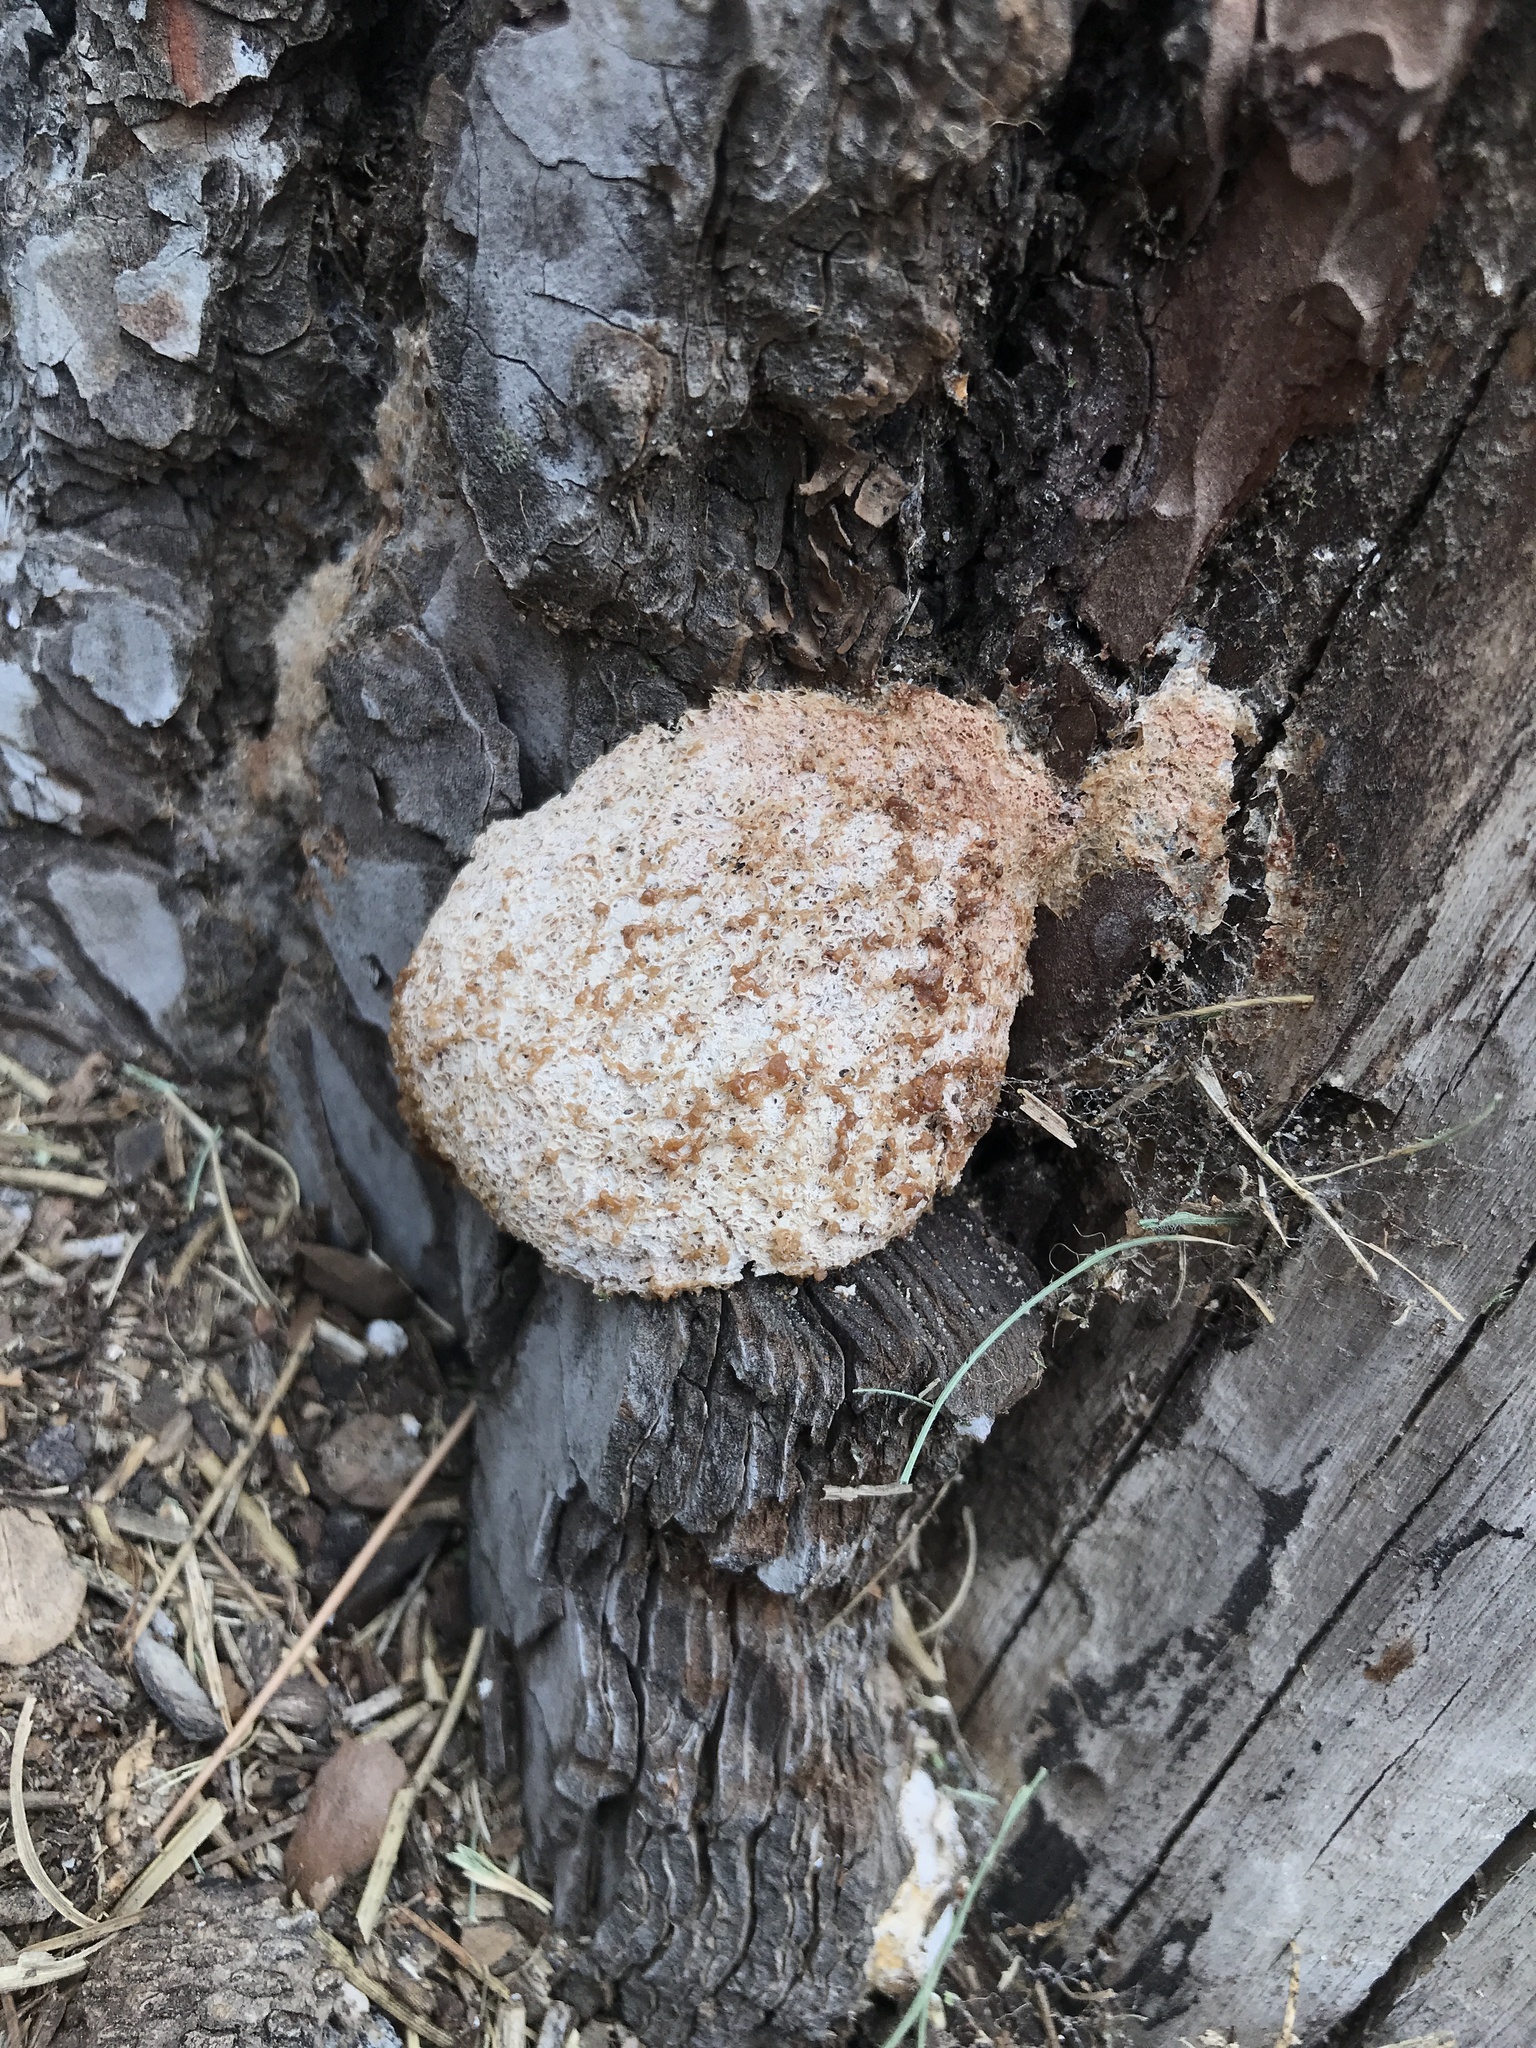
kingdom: Protozoa
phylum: Mycetozoa
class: Myxomycetes
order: Physarales
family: Physaraceae
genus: Fuligo
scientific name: Fuligo septica
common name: Dog vomit slime mold
